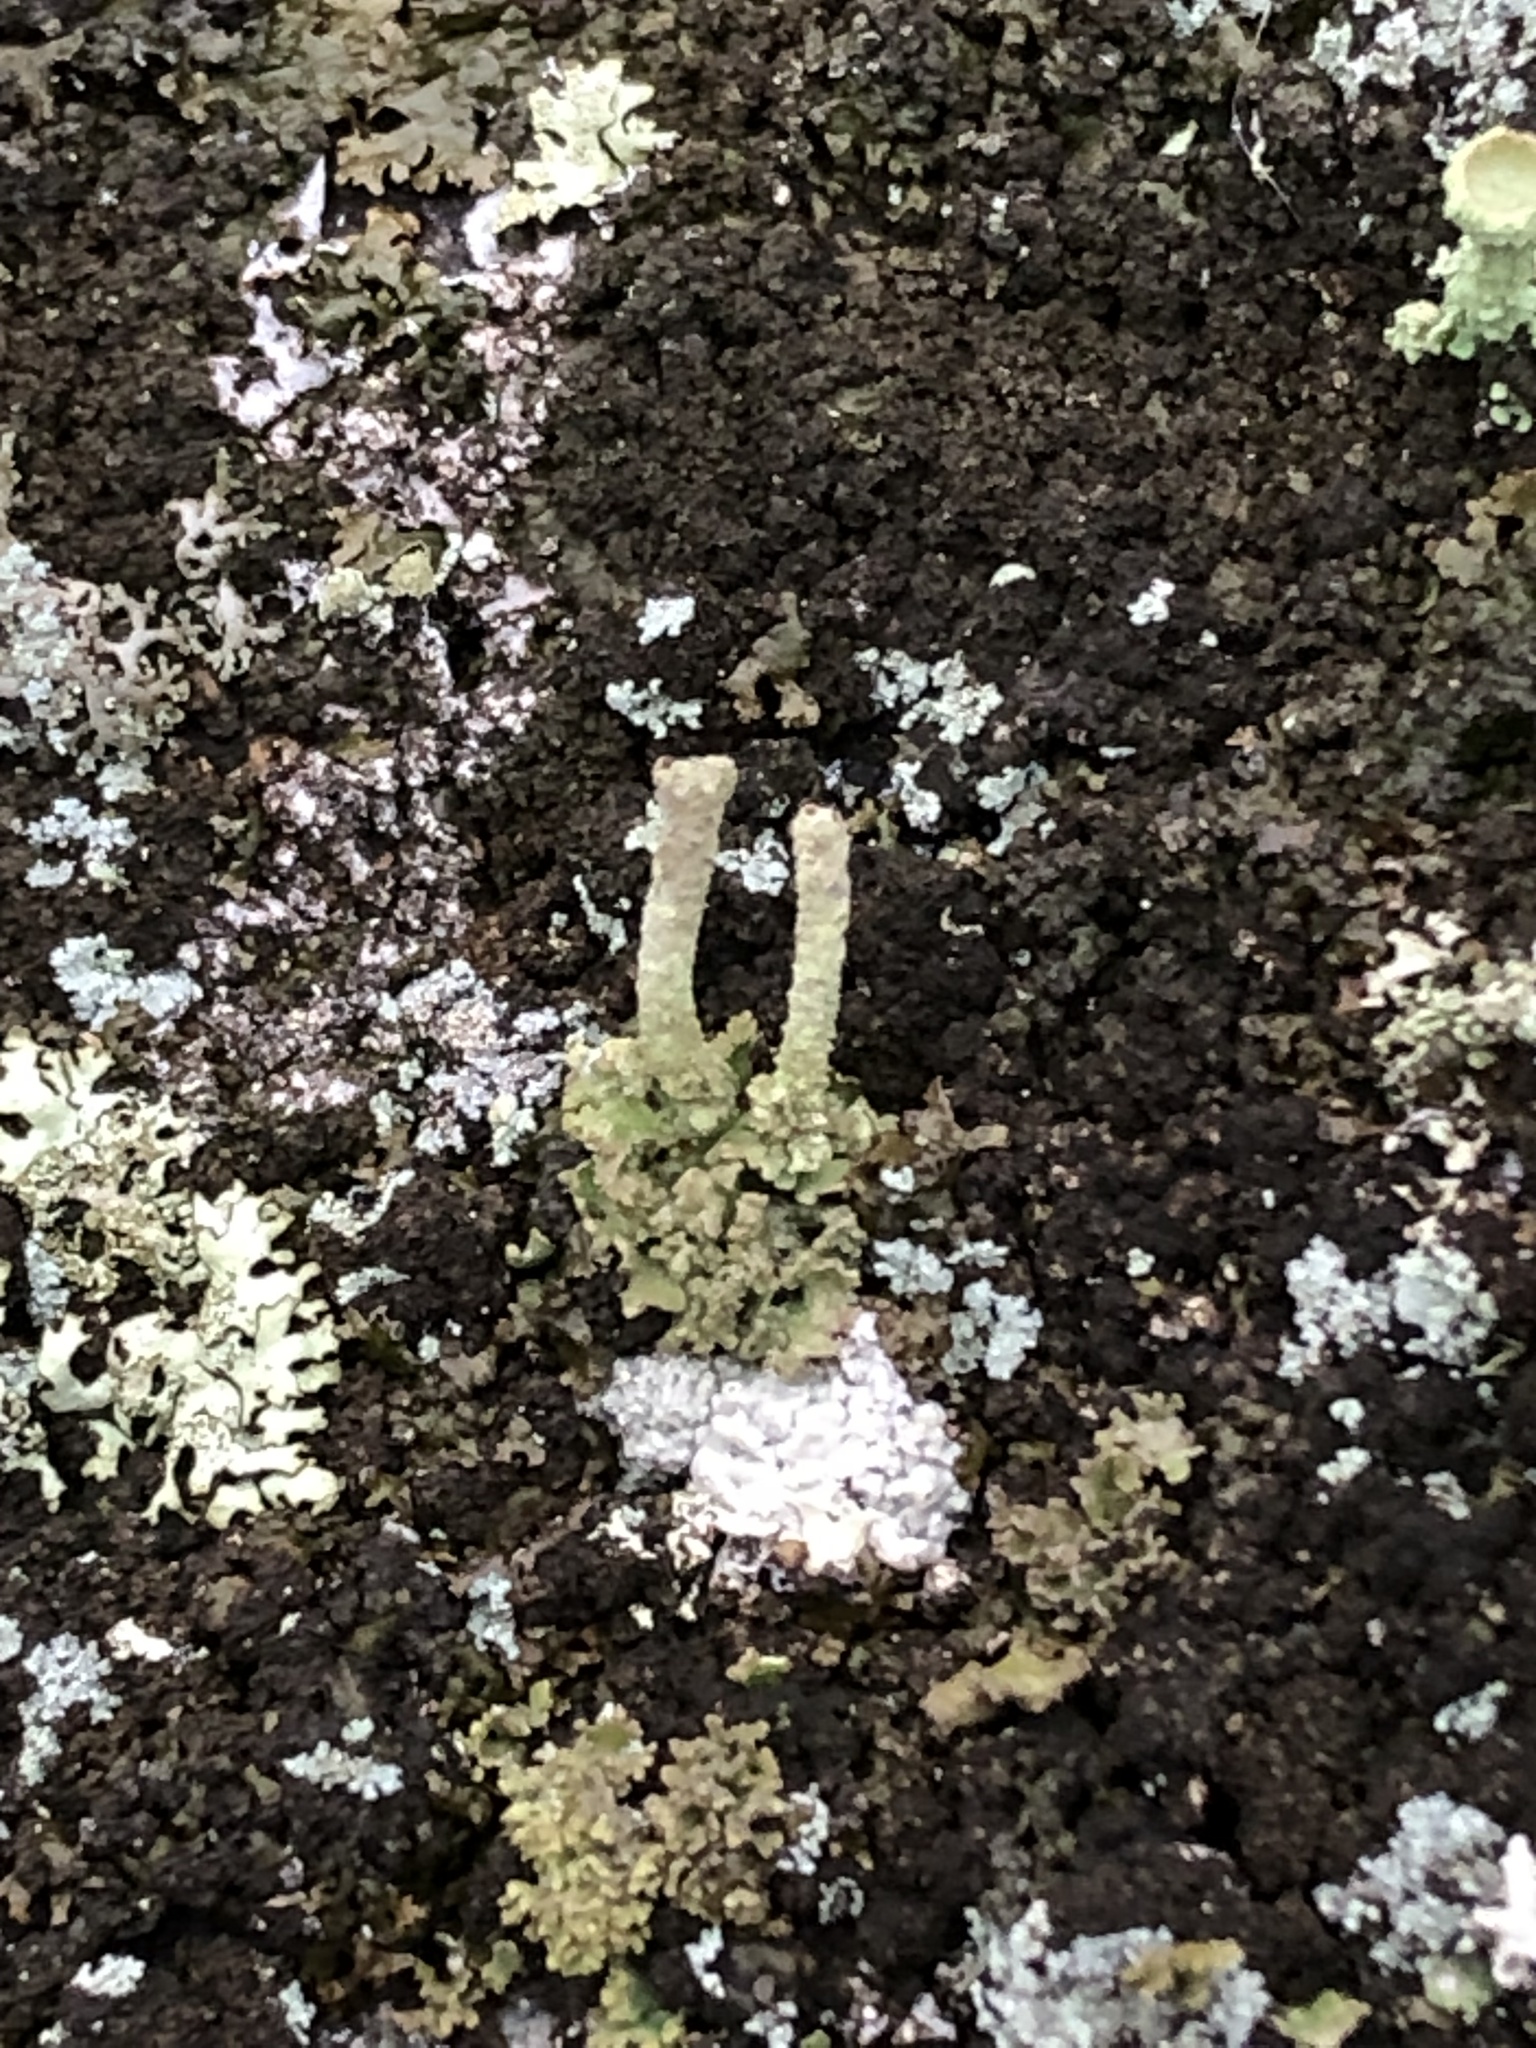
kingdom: Fungi
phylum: Ascomycota
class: Lecanoromycetes
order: Lecanorales
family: Cladoniaceae
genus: Cladonia
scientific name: Cladonia
